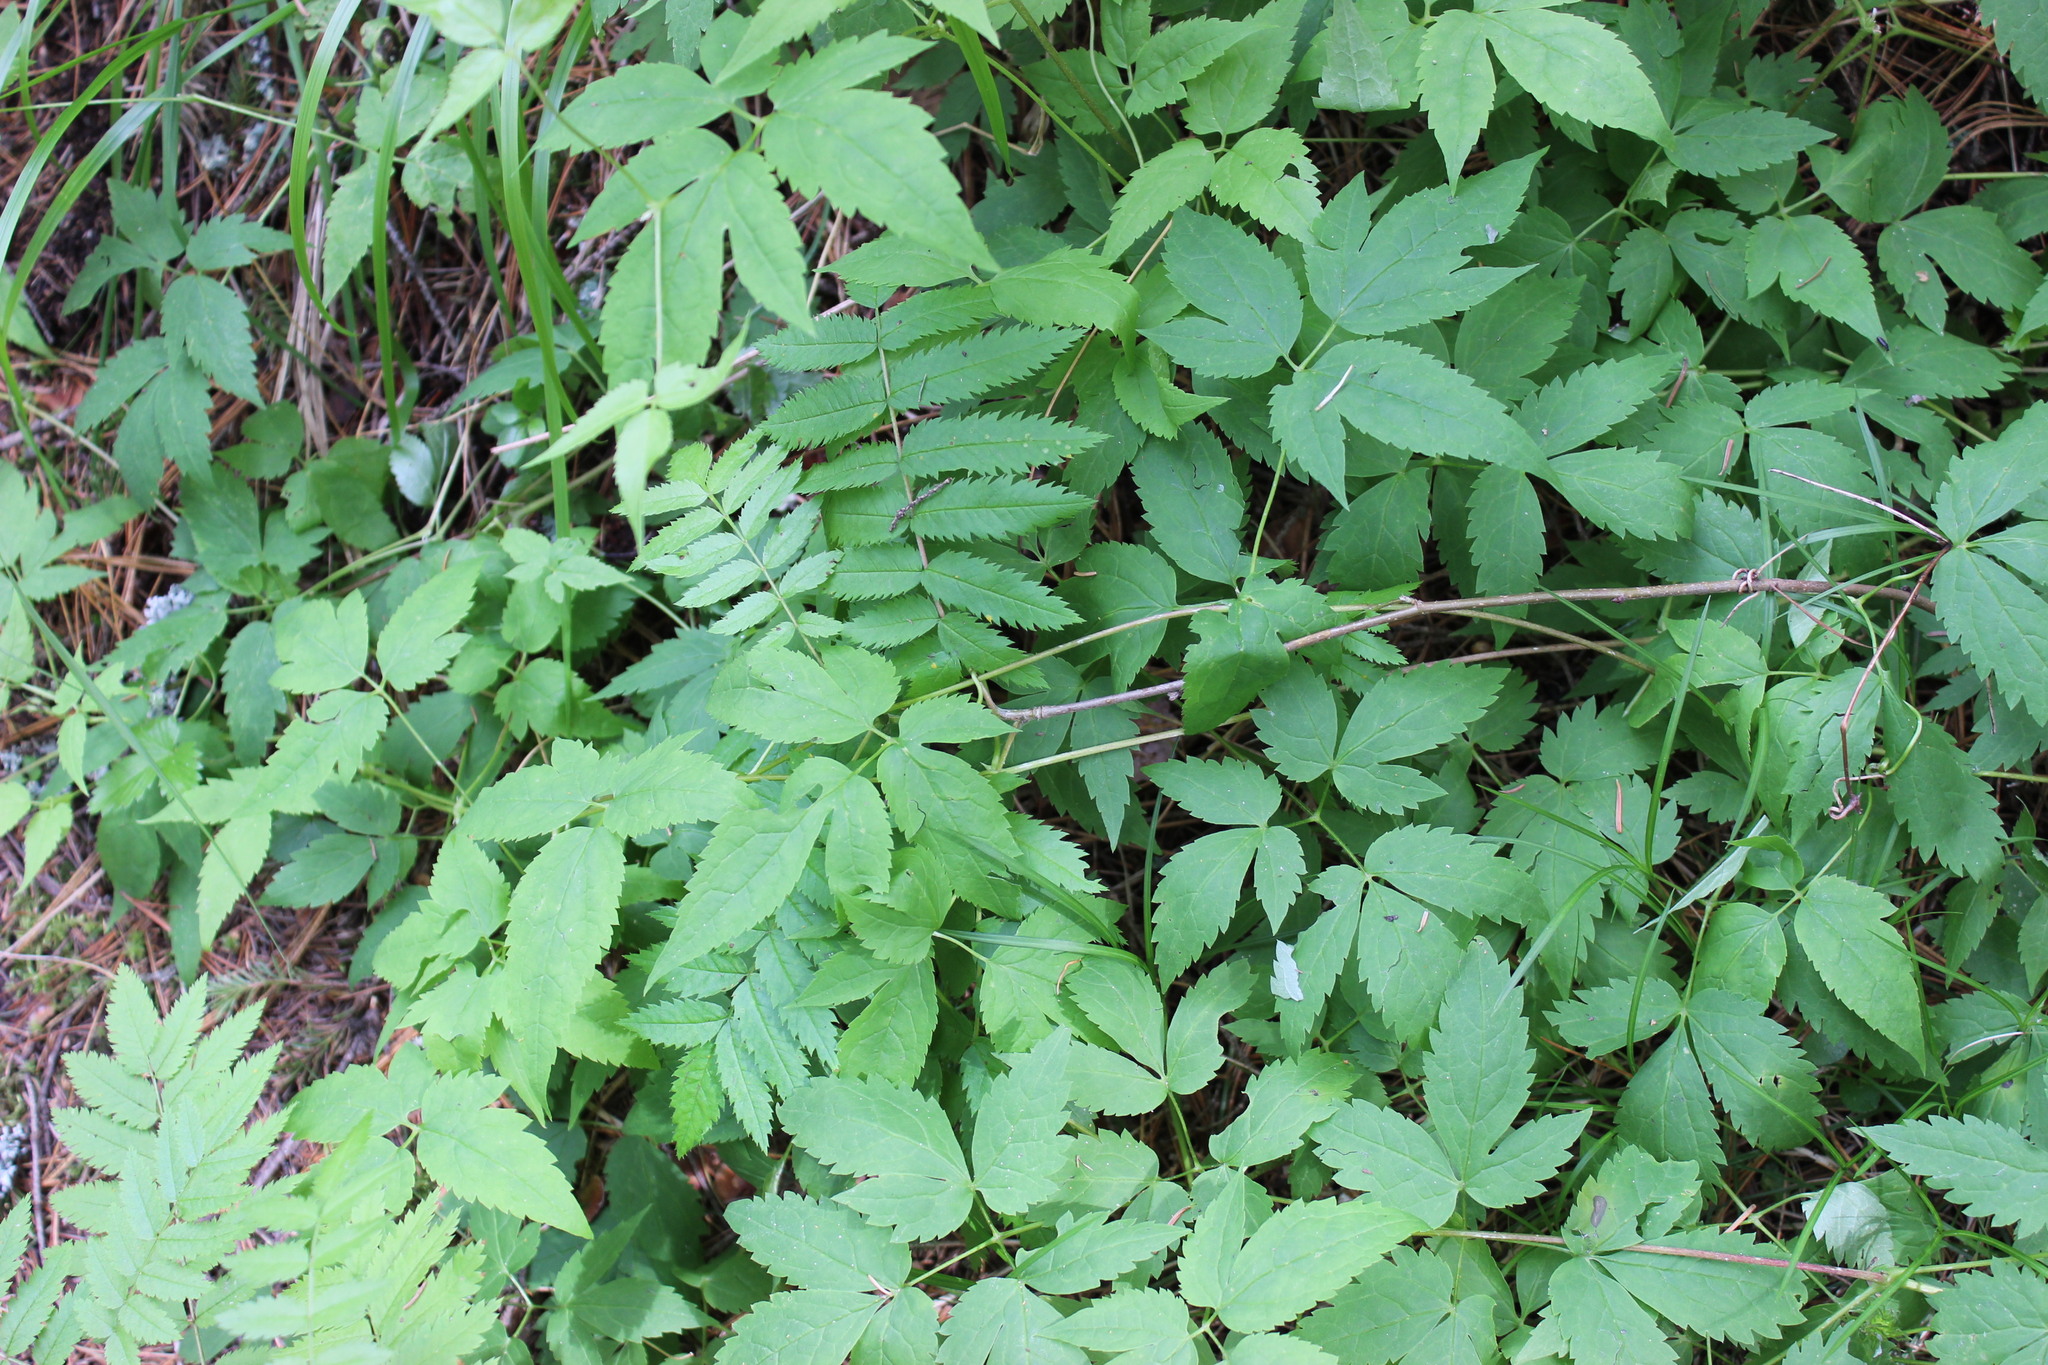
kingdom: Plantae
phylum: Tracheophyta
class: Magnoliopsida
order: Ranunculales
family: Ranunculaceae
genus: Clematis
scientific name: Clematis sibirica
